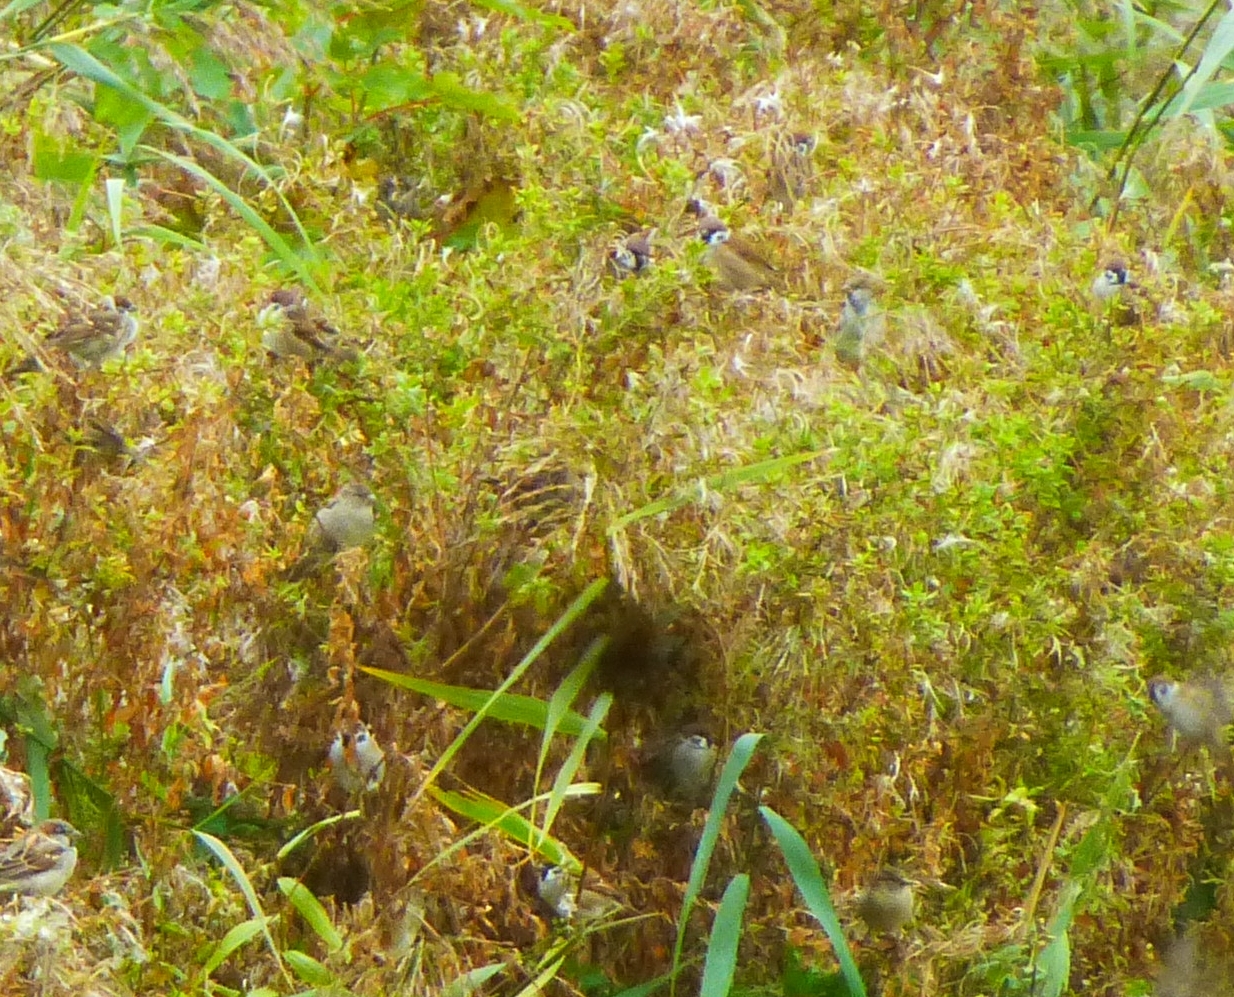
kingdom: Animalia
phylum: Chordata
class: Aves
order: Passeriformes
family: Passeridae
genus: Passer
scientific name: Passer montanus
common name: Eurasian tree sparrow
